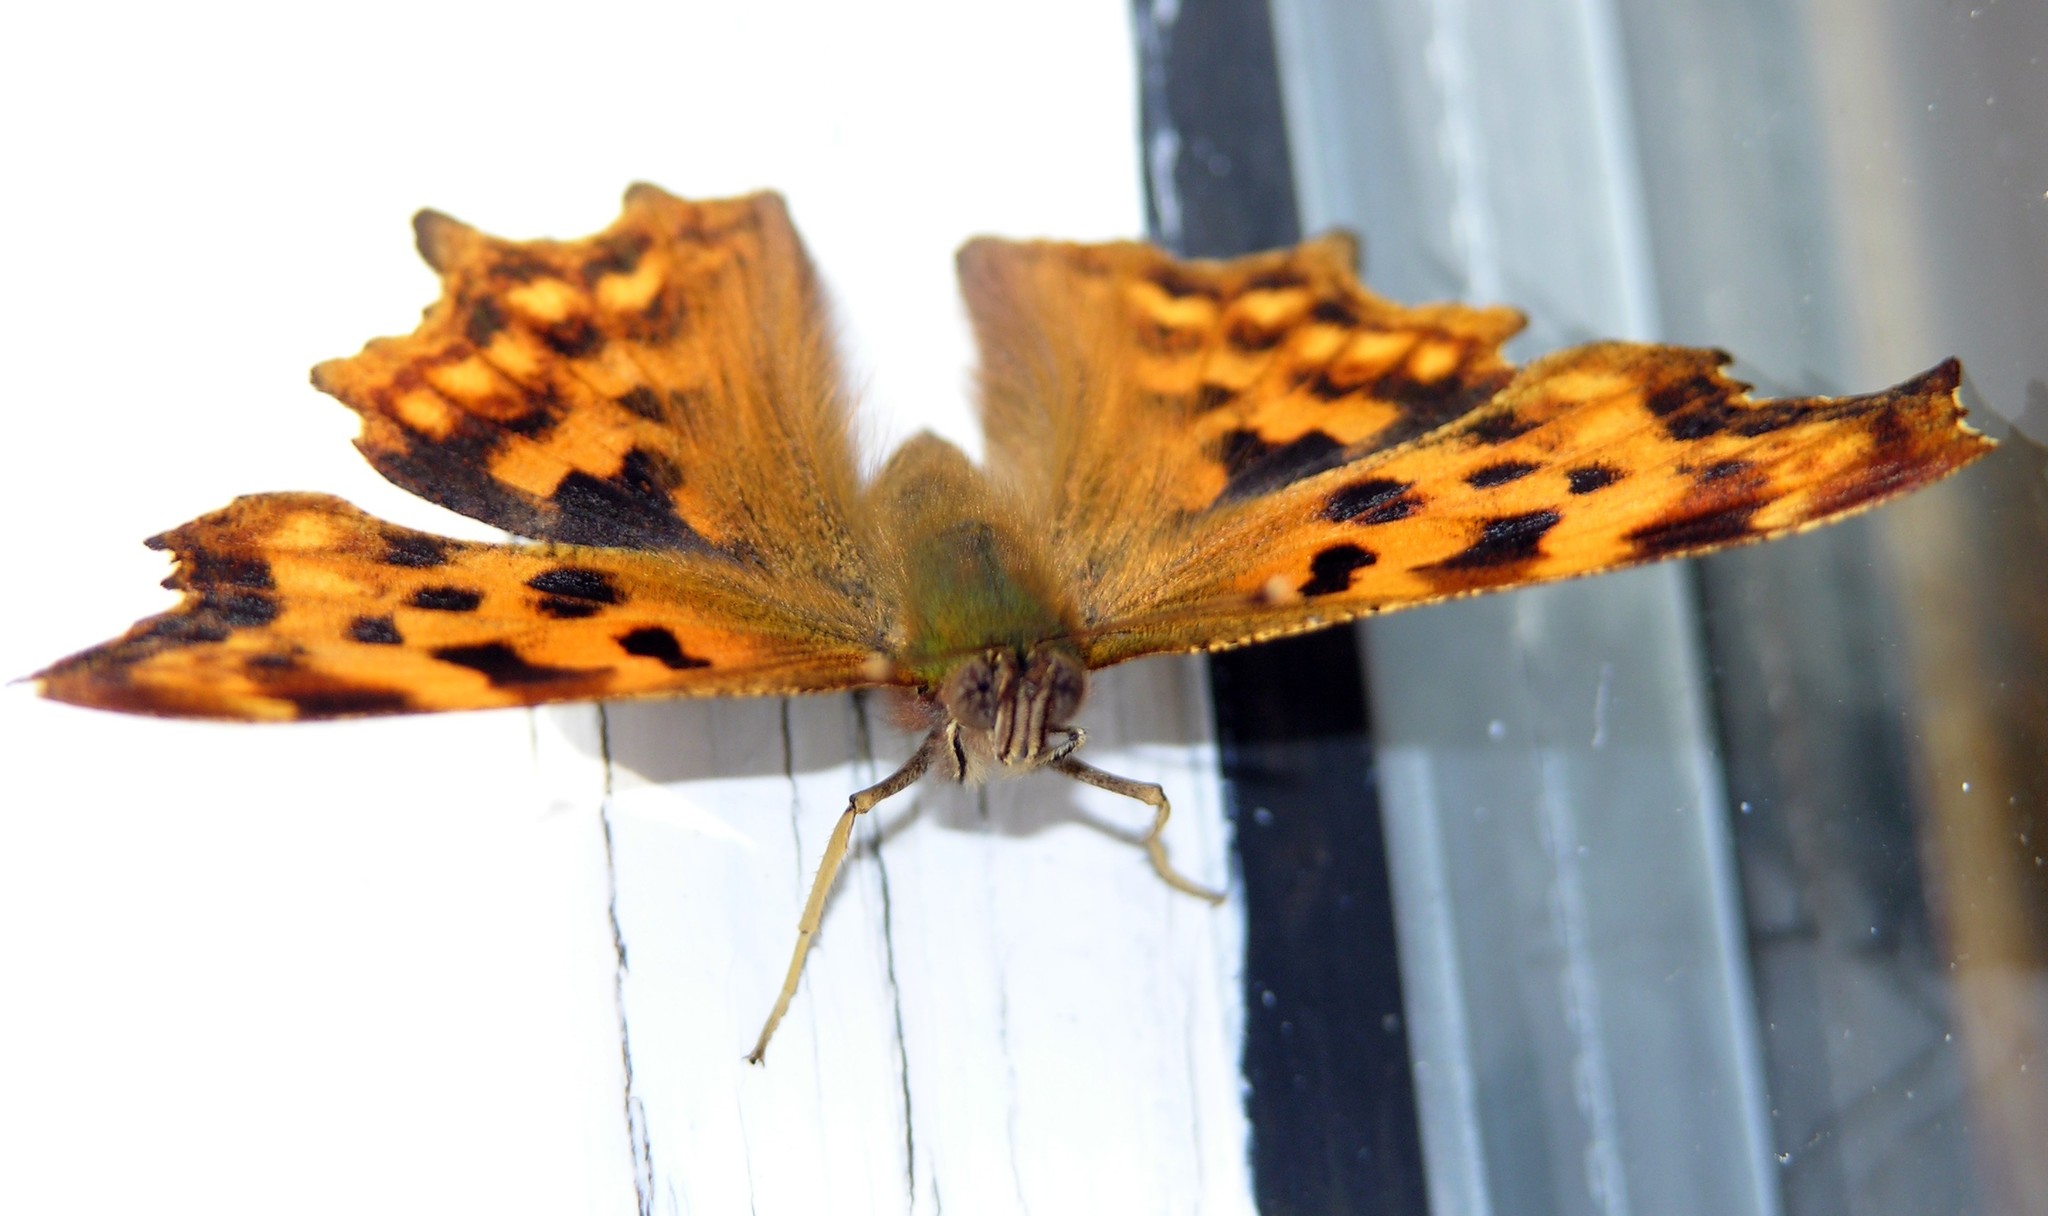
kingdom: Animalia
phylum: Arthropoda
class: Insecta
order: Lepidoptera
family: Nymphalidae
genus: Polygonia
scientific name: Polygonia c-album
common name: Comma
